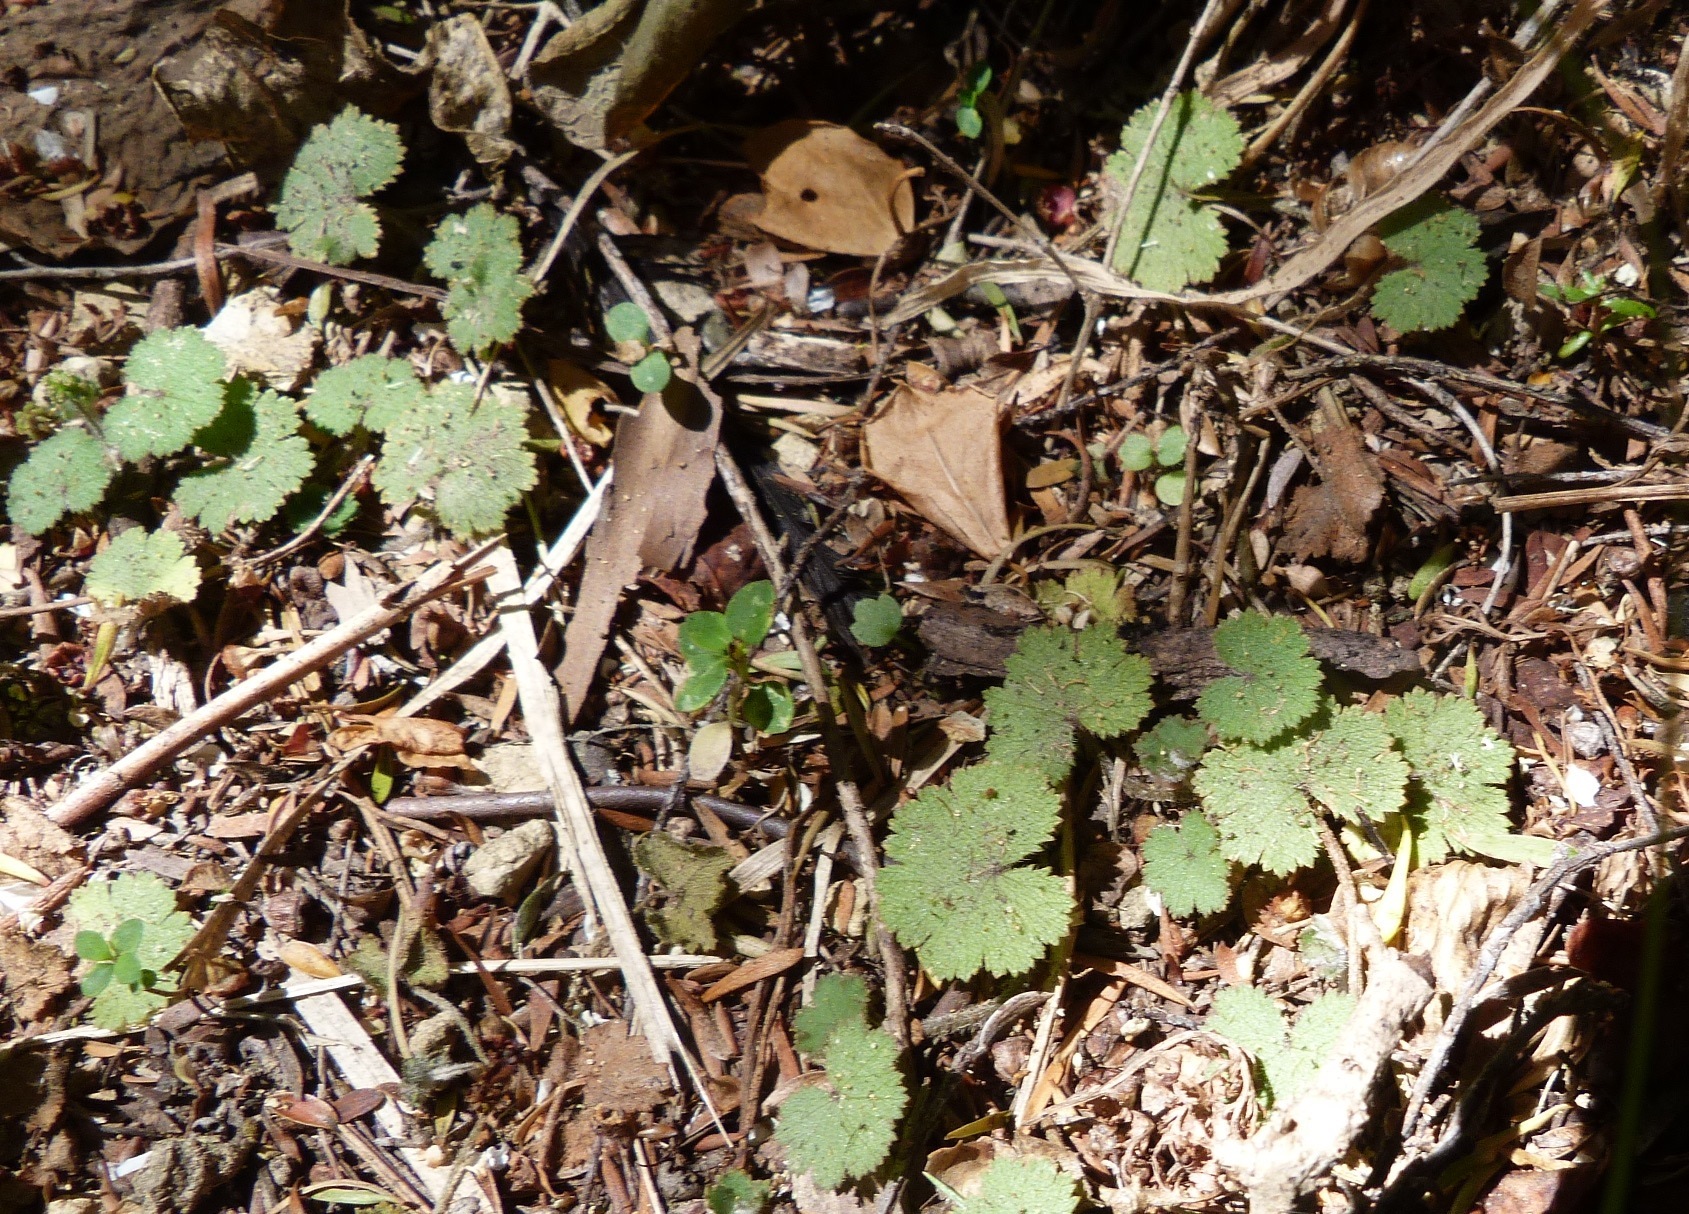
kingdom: Plantae
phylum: Tracheophyta
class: Magnoliopsida
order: Apiales
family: Araliaceae
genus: Hydrocotyle
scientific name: Hydrocotyle moschata
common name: Hairy pennywort
